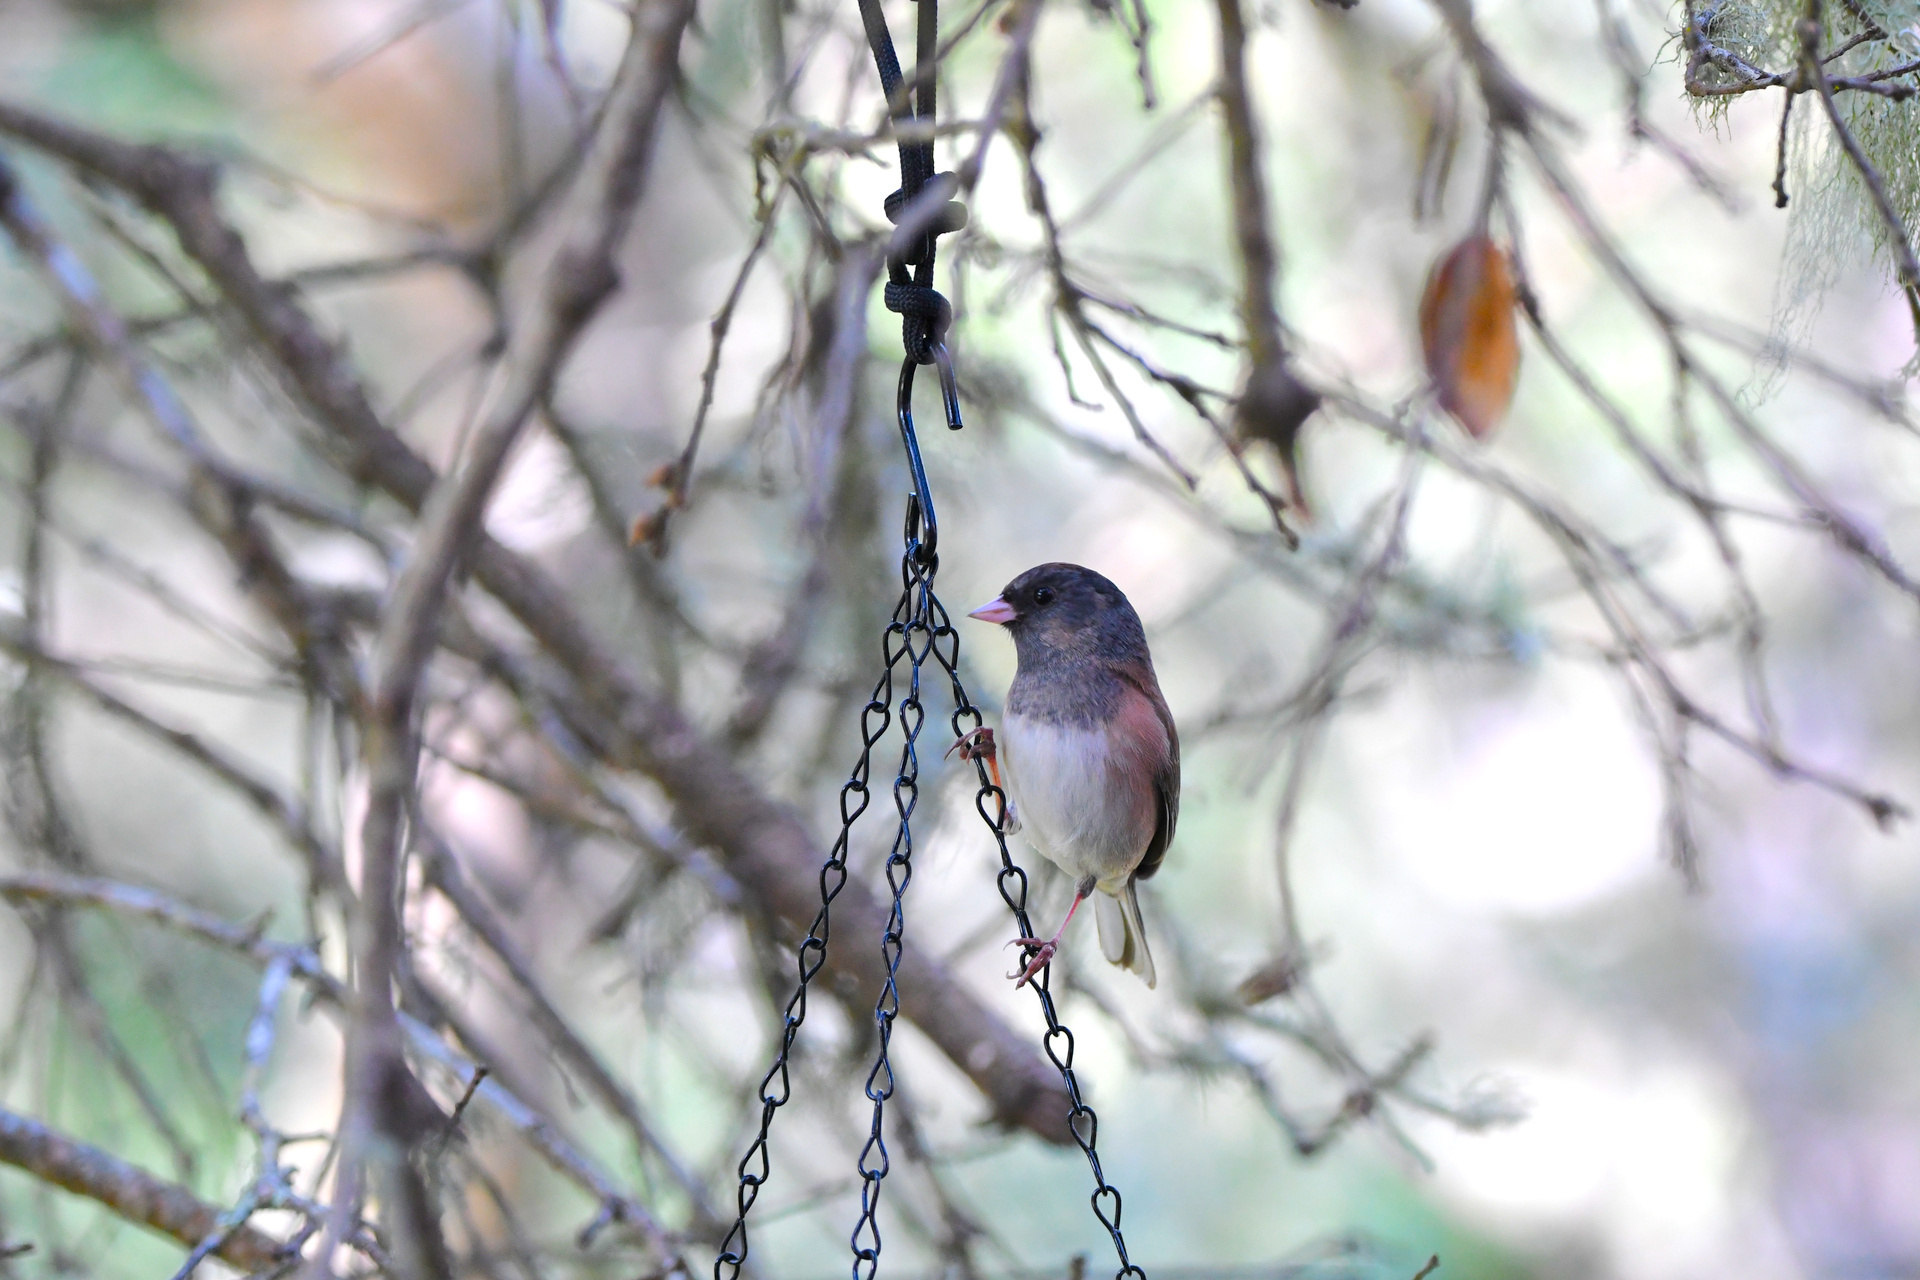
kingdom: Animalia
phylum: Chordata
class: Aves
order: Passeriformes
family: Passerellidae
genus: Junco
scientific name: Junco hyemalis
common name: Dark-eyed junco
